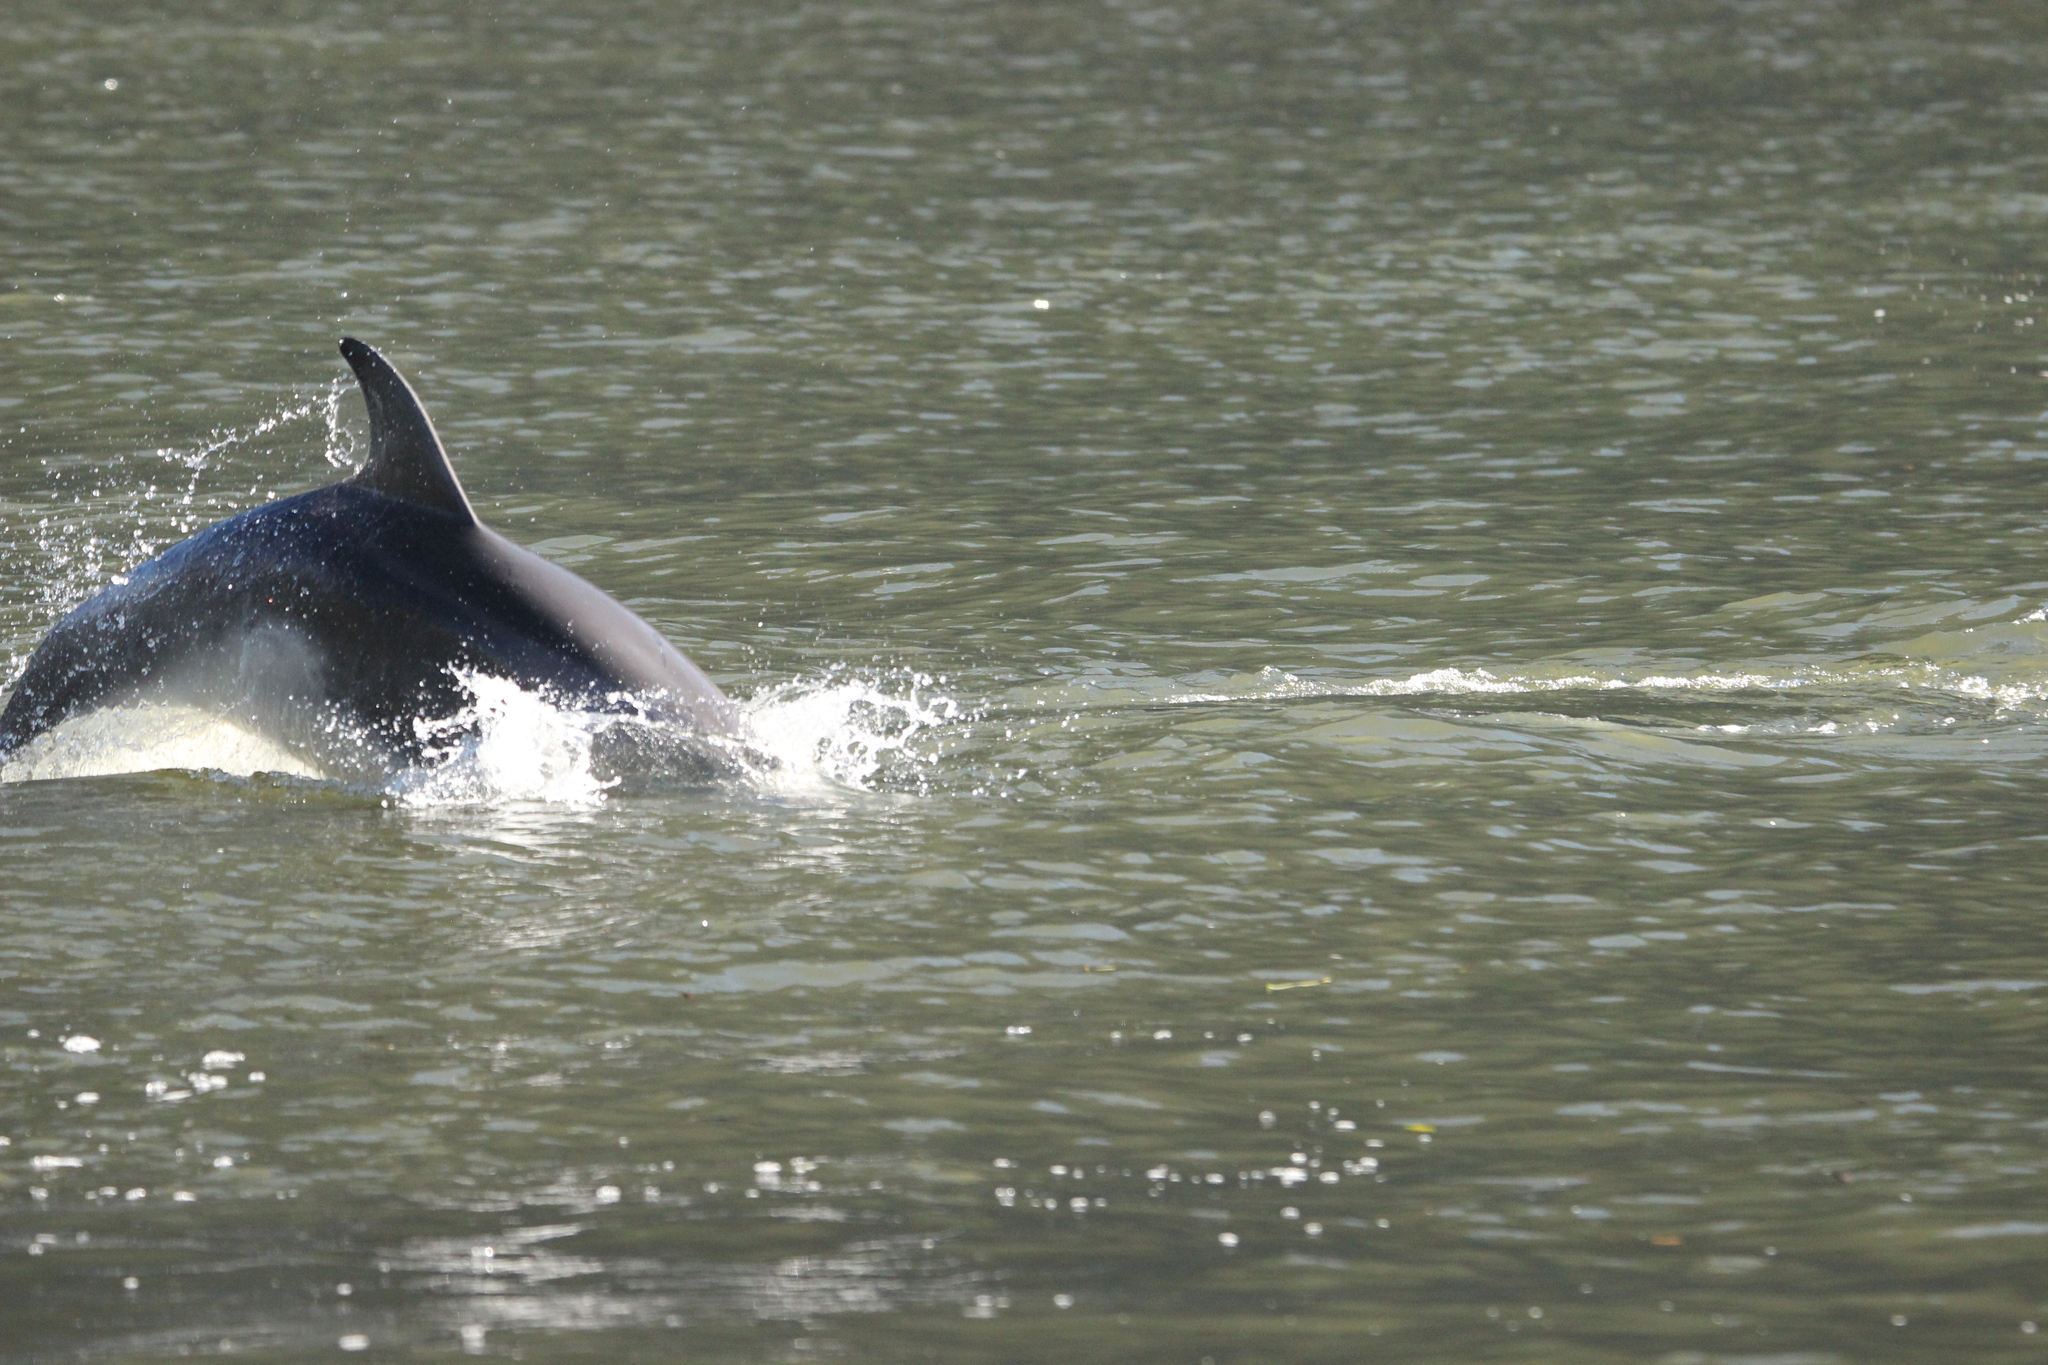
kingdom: Animalia
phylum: Chordata
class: Mammalia
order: Cetacea
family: Delphinidae
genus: Tursiops
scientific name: Tursiops truncatus
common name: Bottlenose dolphin
